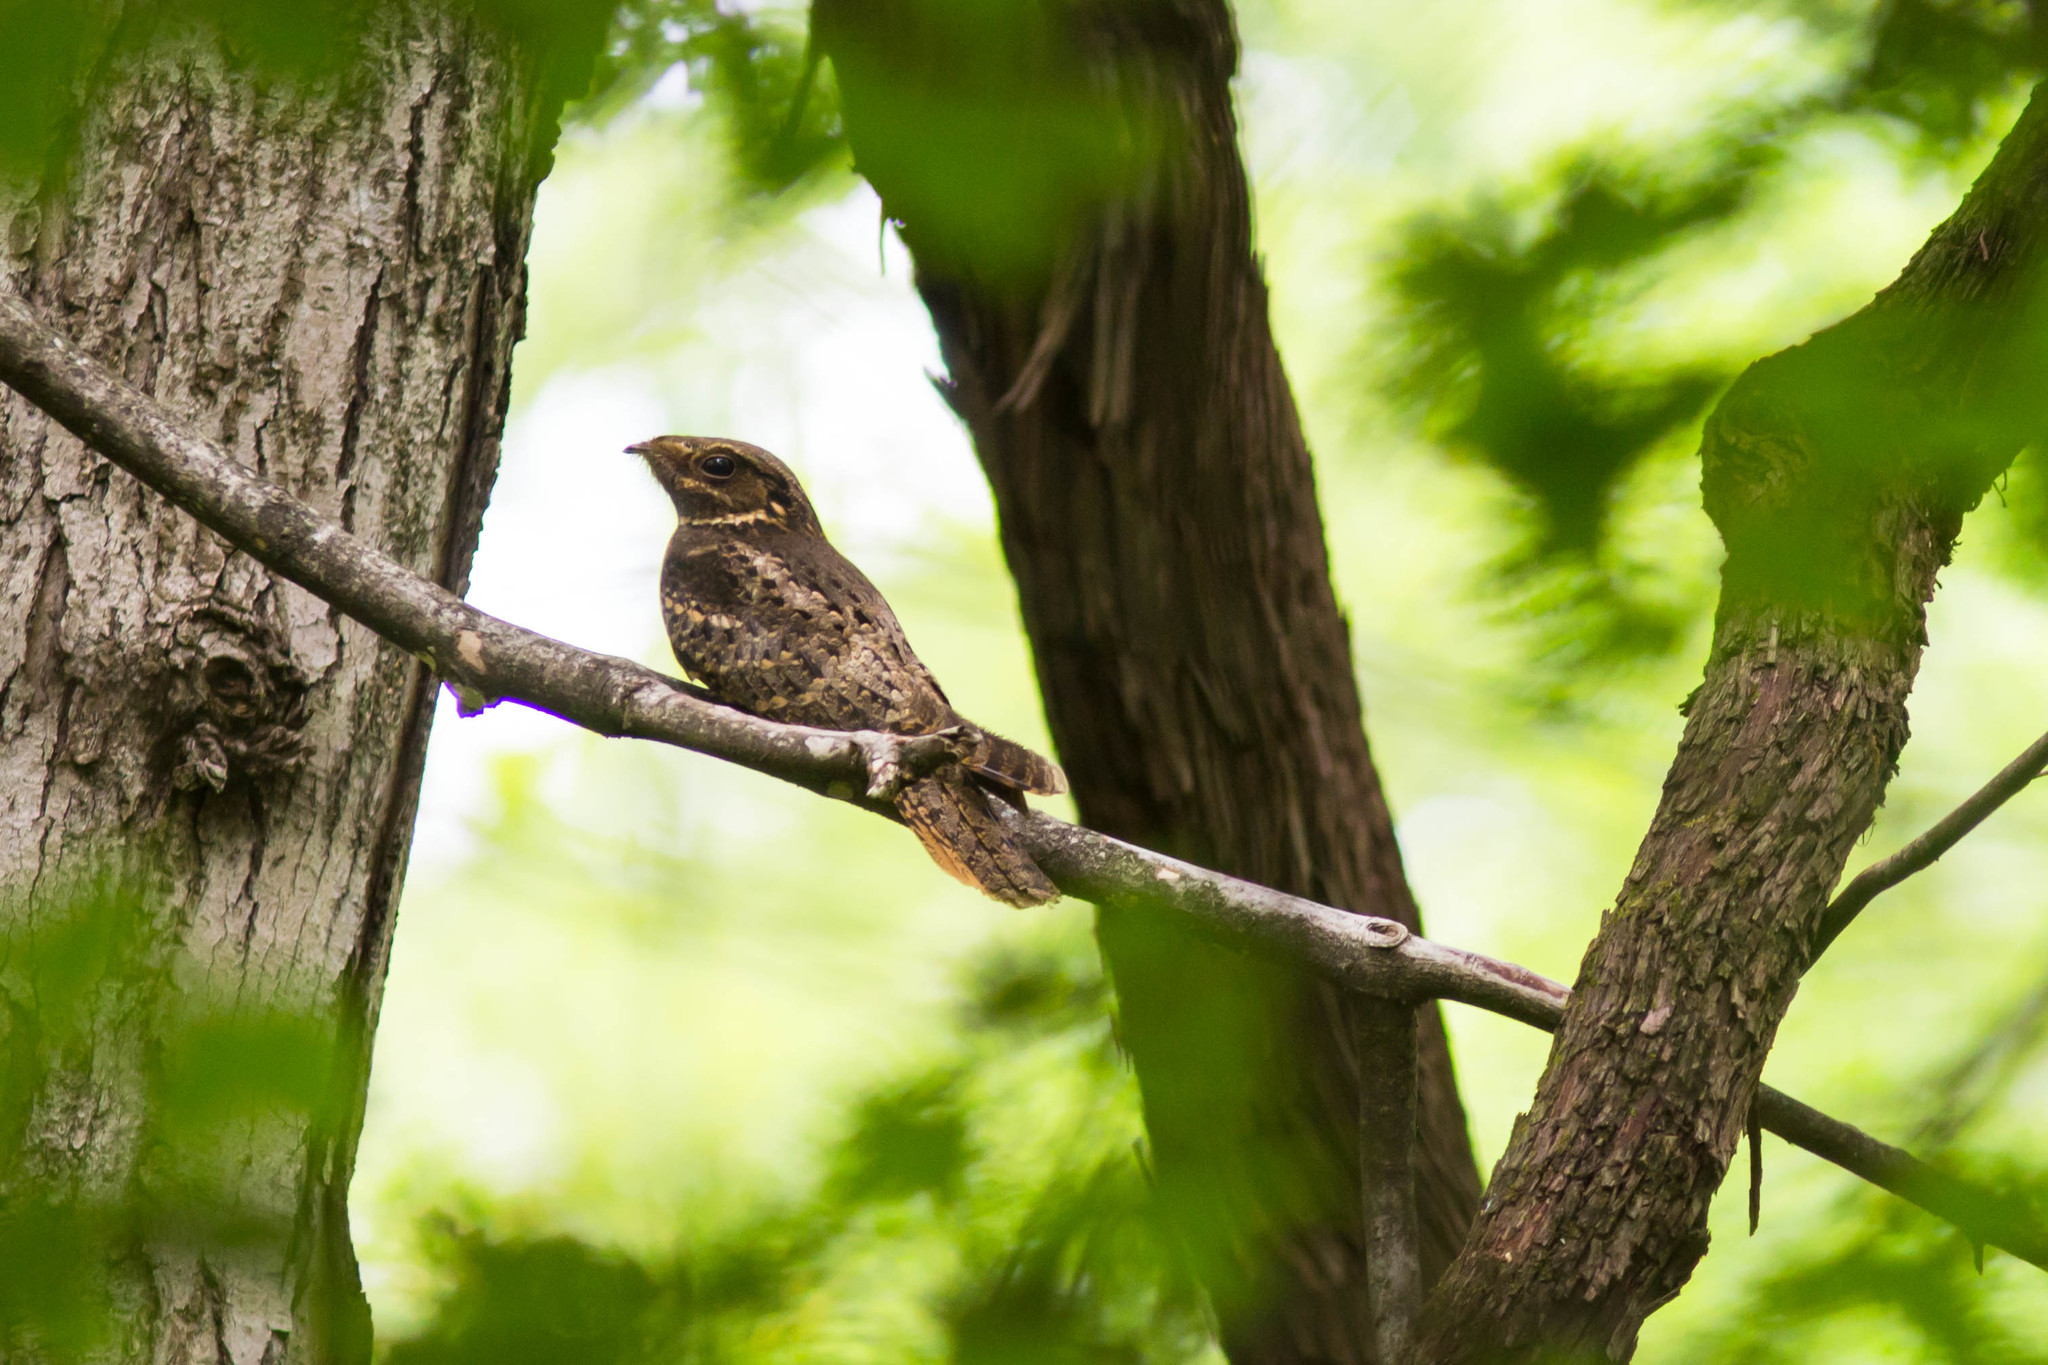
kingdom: Animalia
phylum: Chordata
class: Aves
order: Caprimulgiformes
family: Caprimulgidae
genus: Antrostomus
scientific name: Antrostomus carolinensis
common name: Chuck-will's-widow
